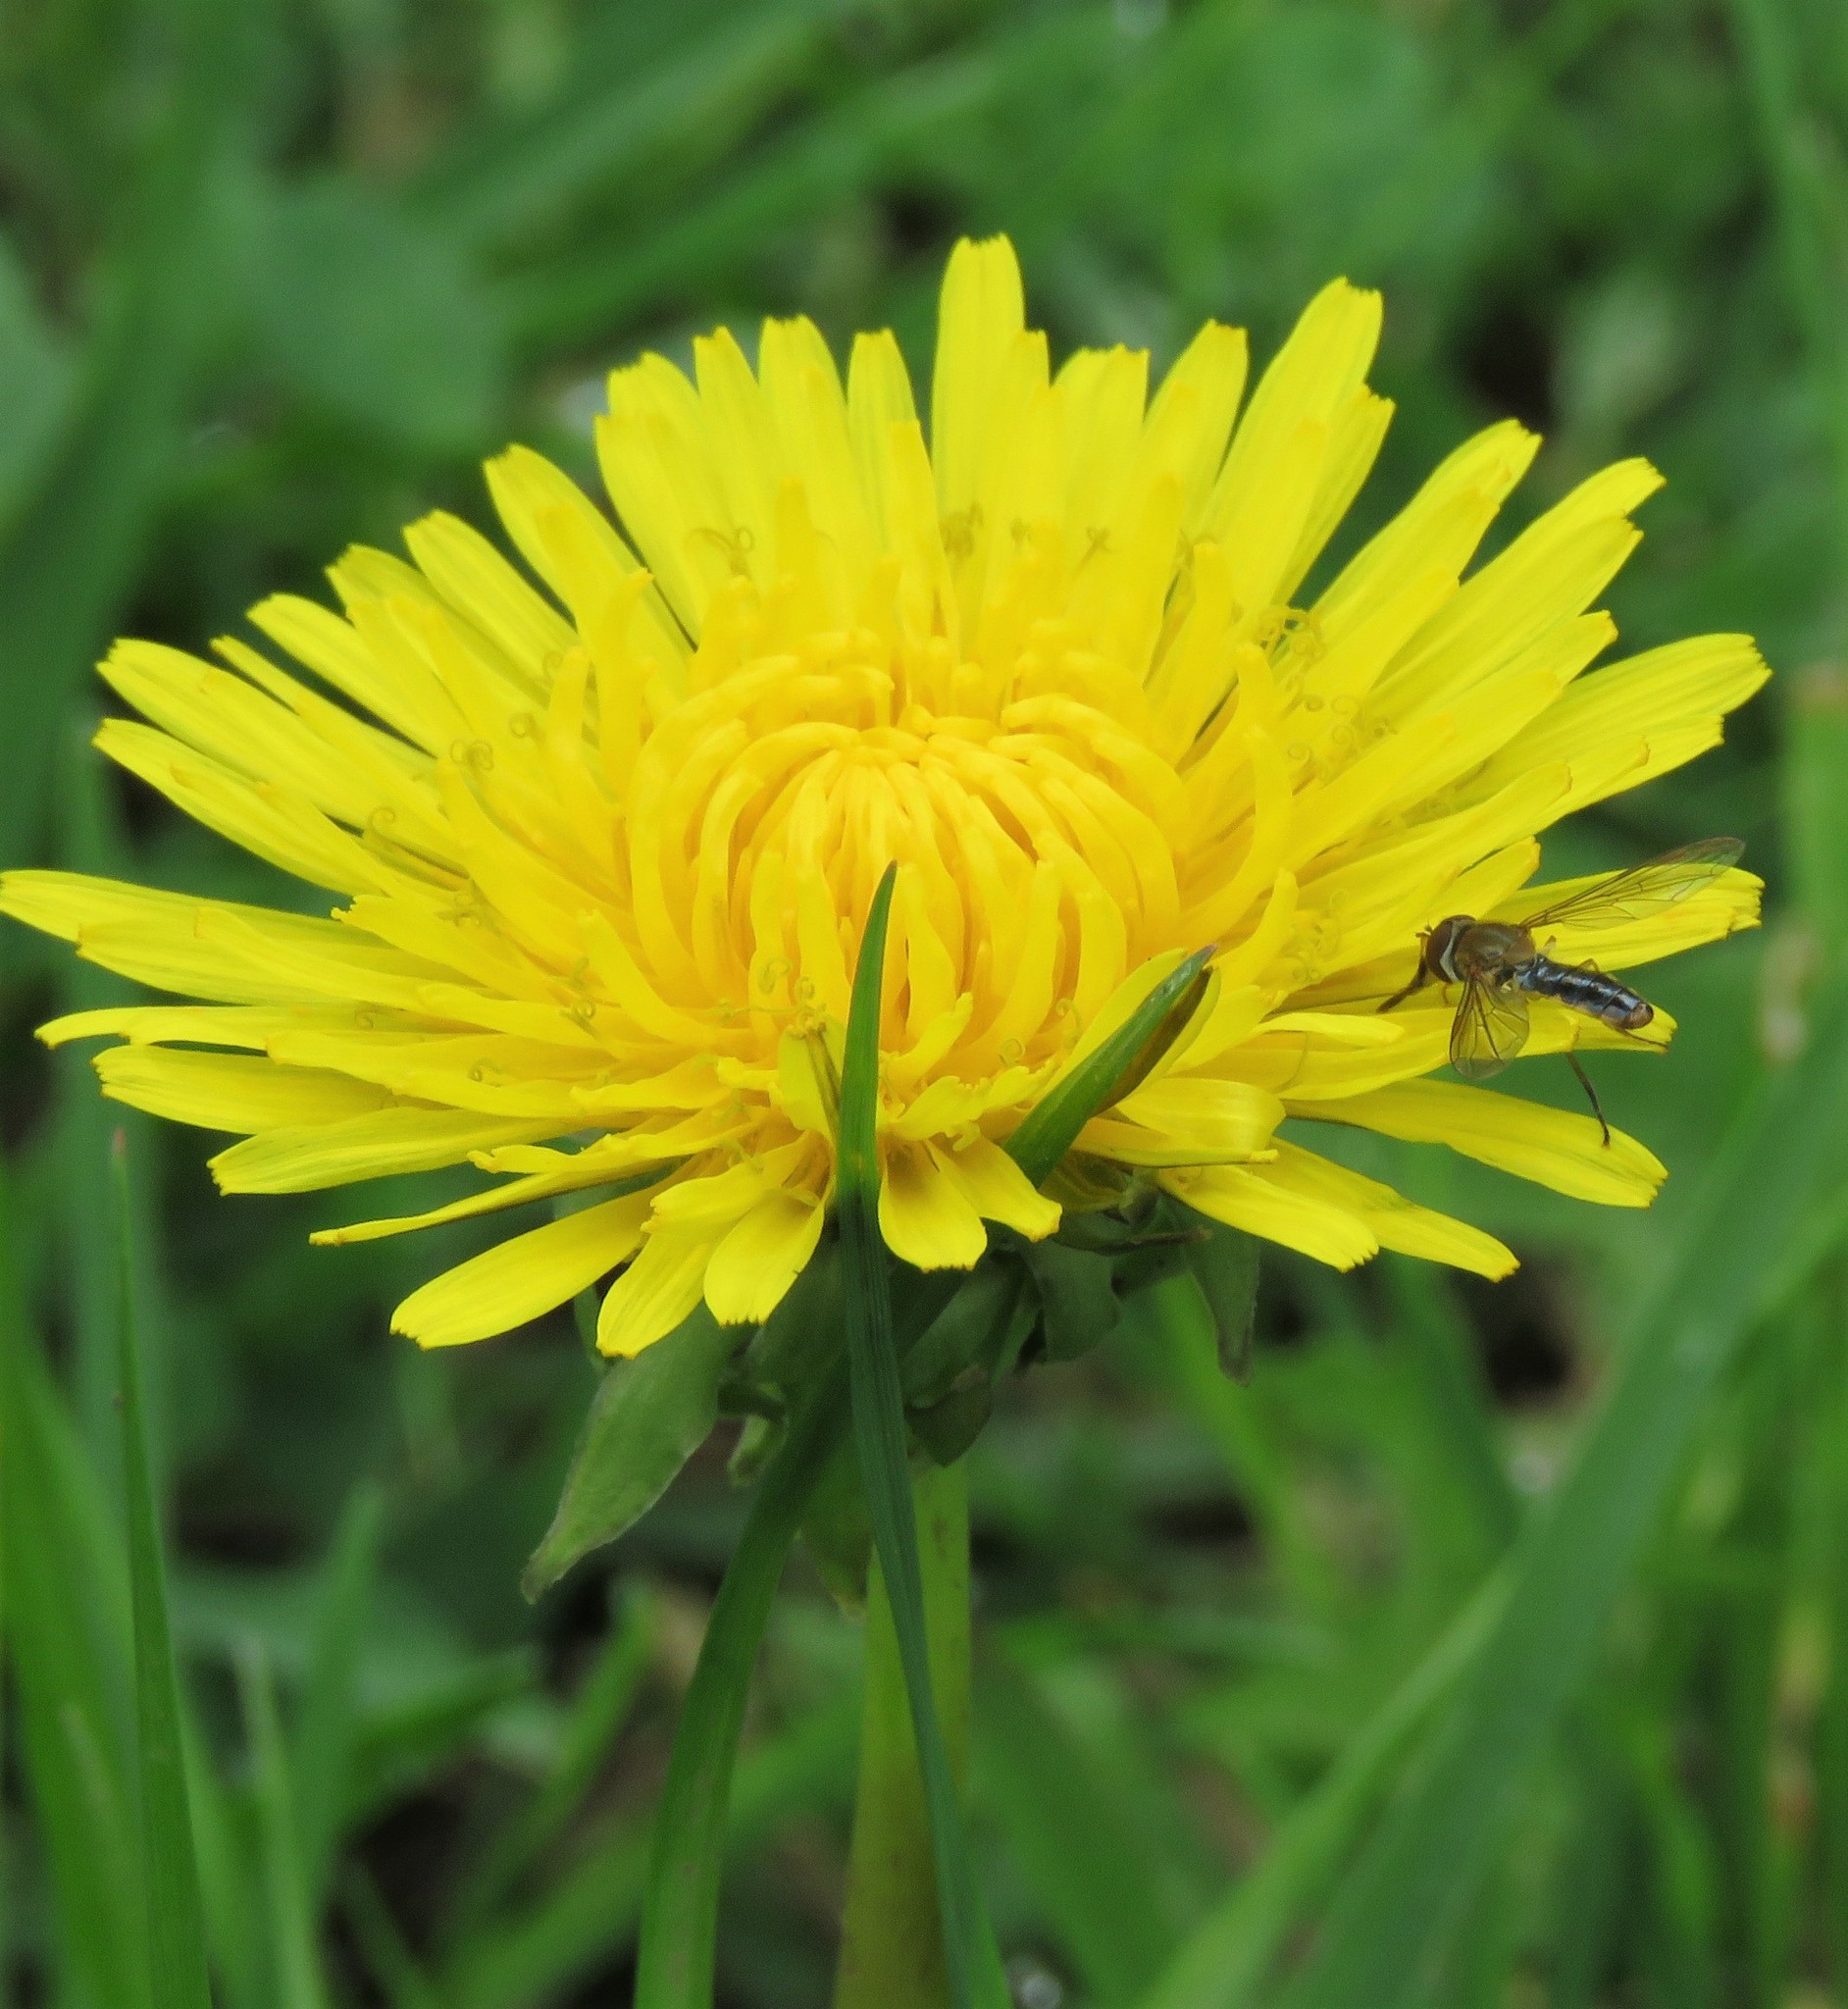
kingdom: Plantae
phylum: Tracheophyta
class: Magnoliopsida
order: Asterales
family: Asteraceae
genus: Taraxacum
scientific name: Taraxacum officinale
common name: Common dandelion
